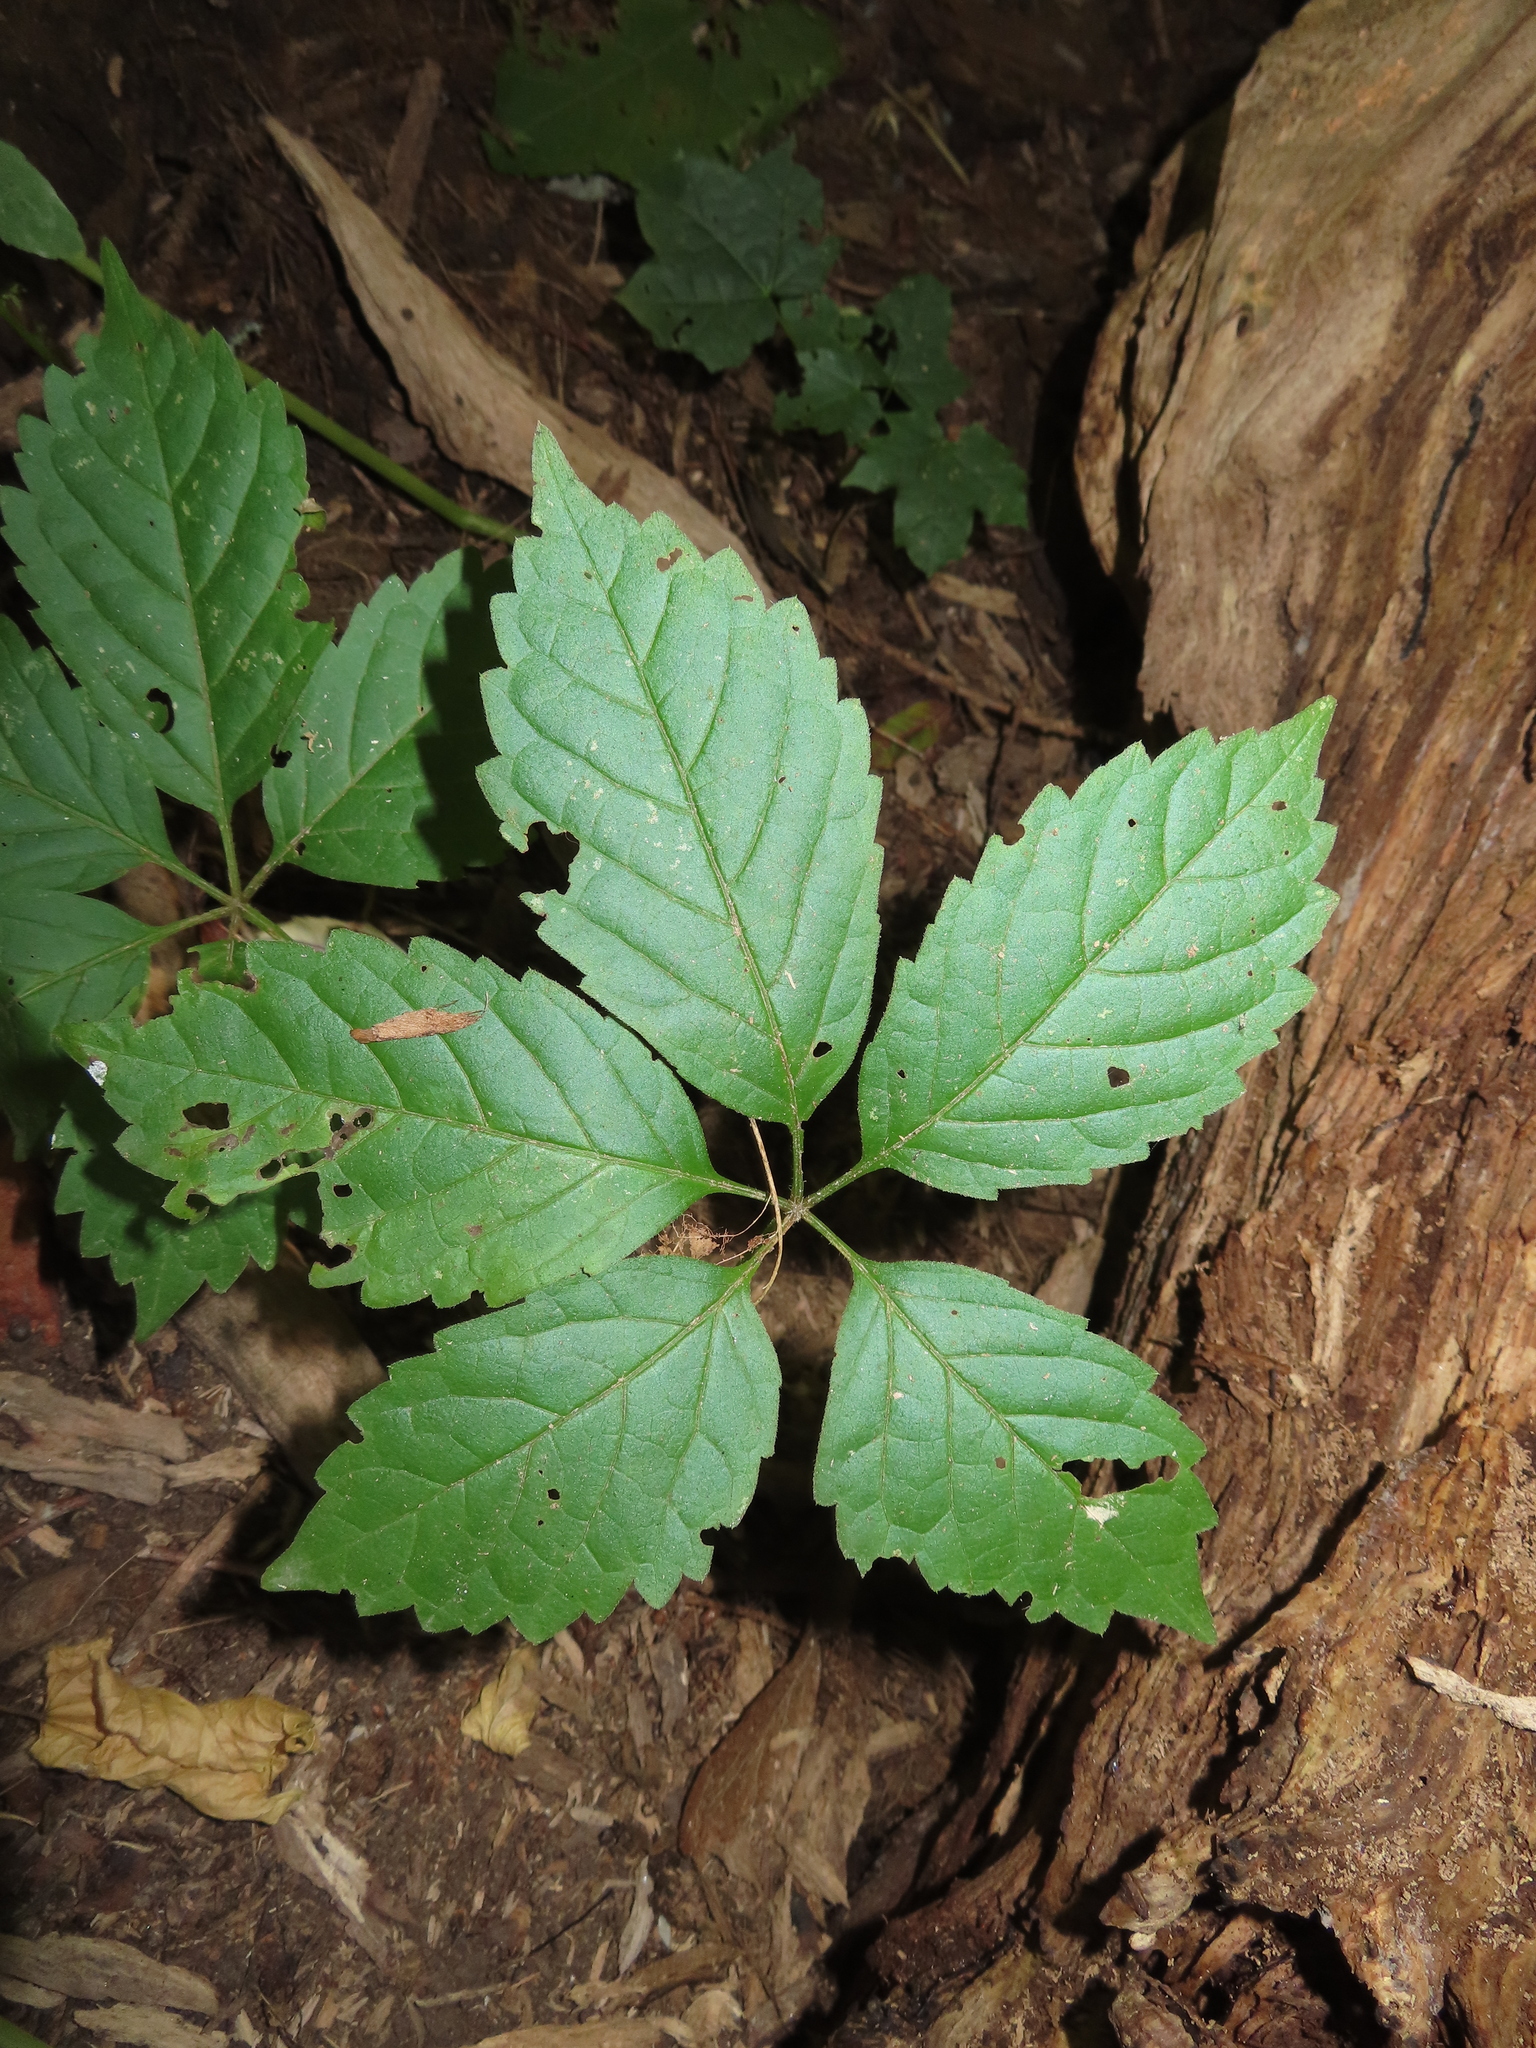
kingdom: Plantae
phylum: Tracheophyta
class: Magnoliopsida
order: Vitales
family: Vitaceae
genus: Parthenocissus
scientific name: Parthenocissus inserta
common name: False virginia-creeper
